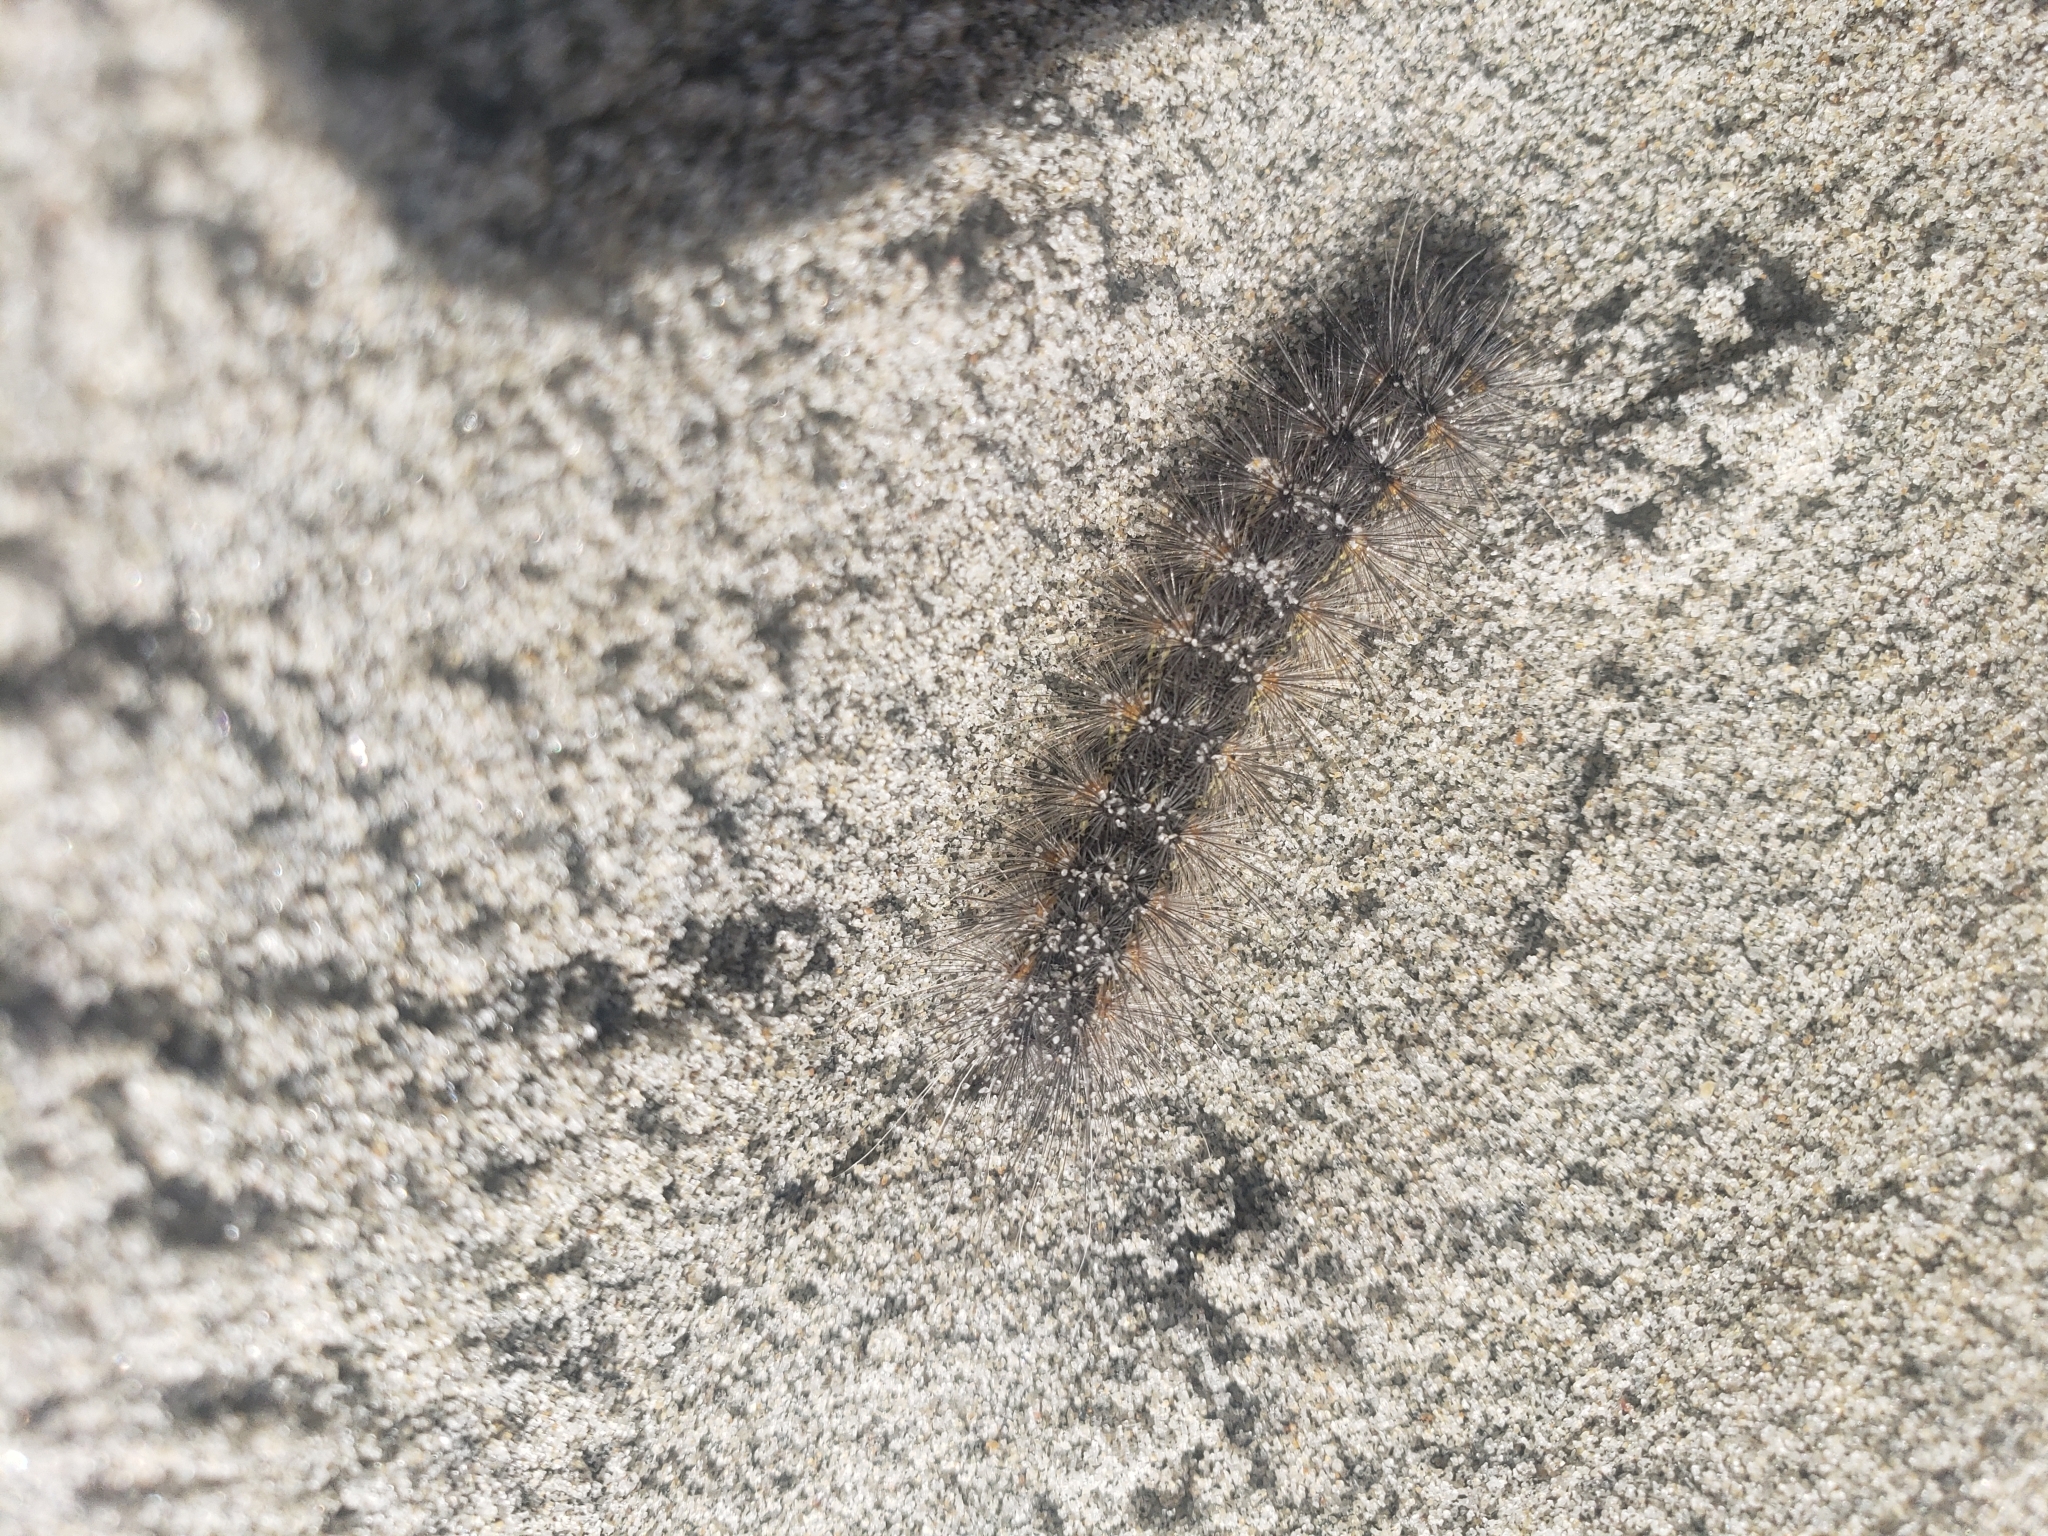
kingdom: Animalia
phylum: Arthropoda
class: Insecta
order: Lepidoptera
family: Erebidae
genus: Estigmene
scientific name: Estigmene acrea
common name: Salt marsh moth
